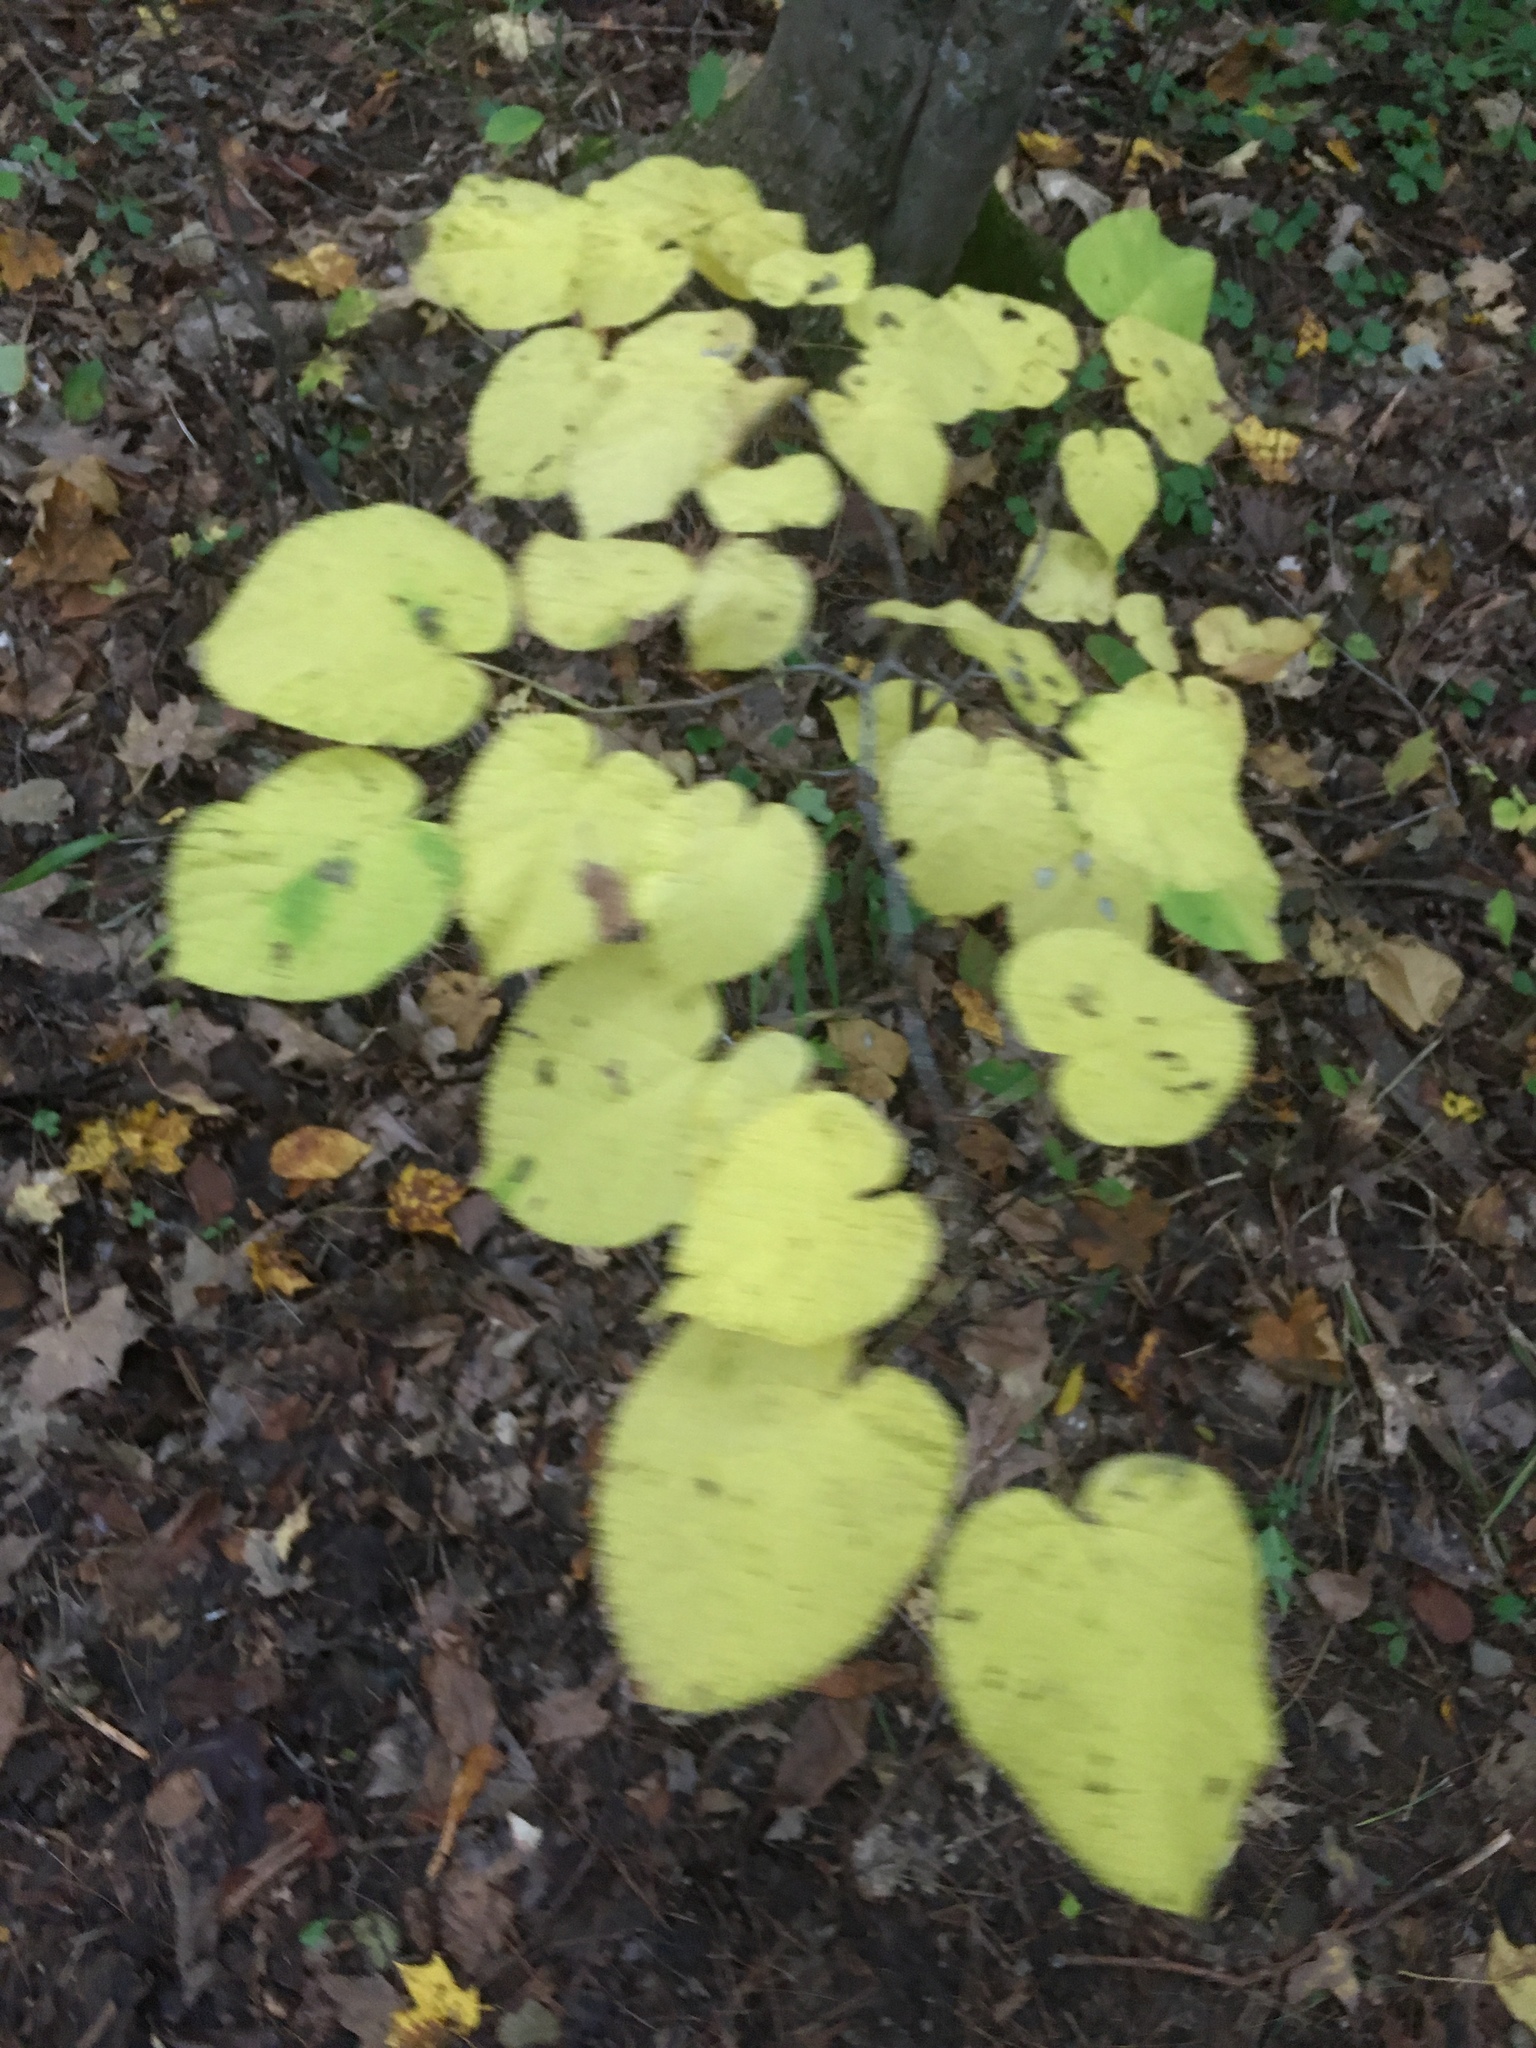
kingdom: Plantae
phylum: Tracheophyta
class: Magnoliopsida
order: Malvales
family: Malvaceae
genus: Tilia
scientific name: Tilia americana
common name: Basswood
